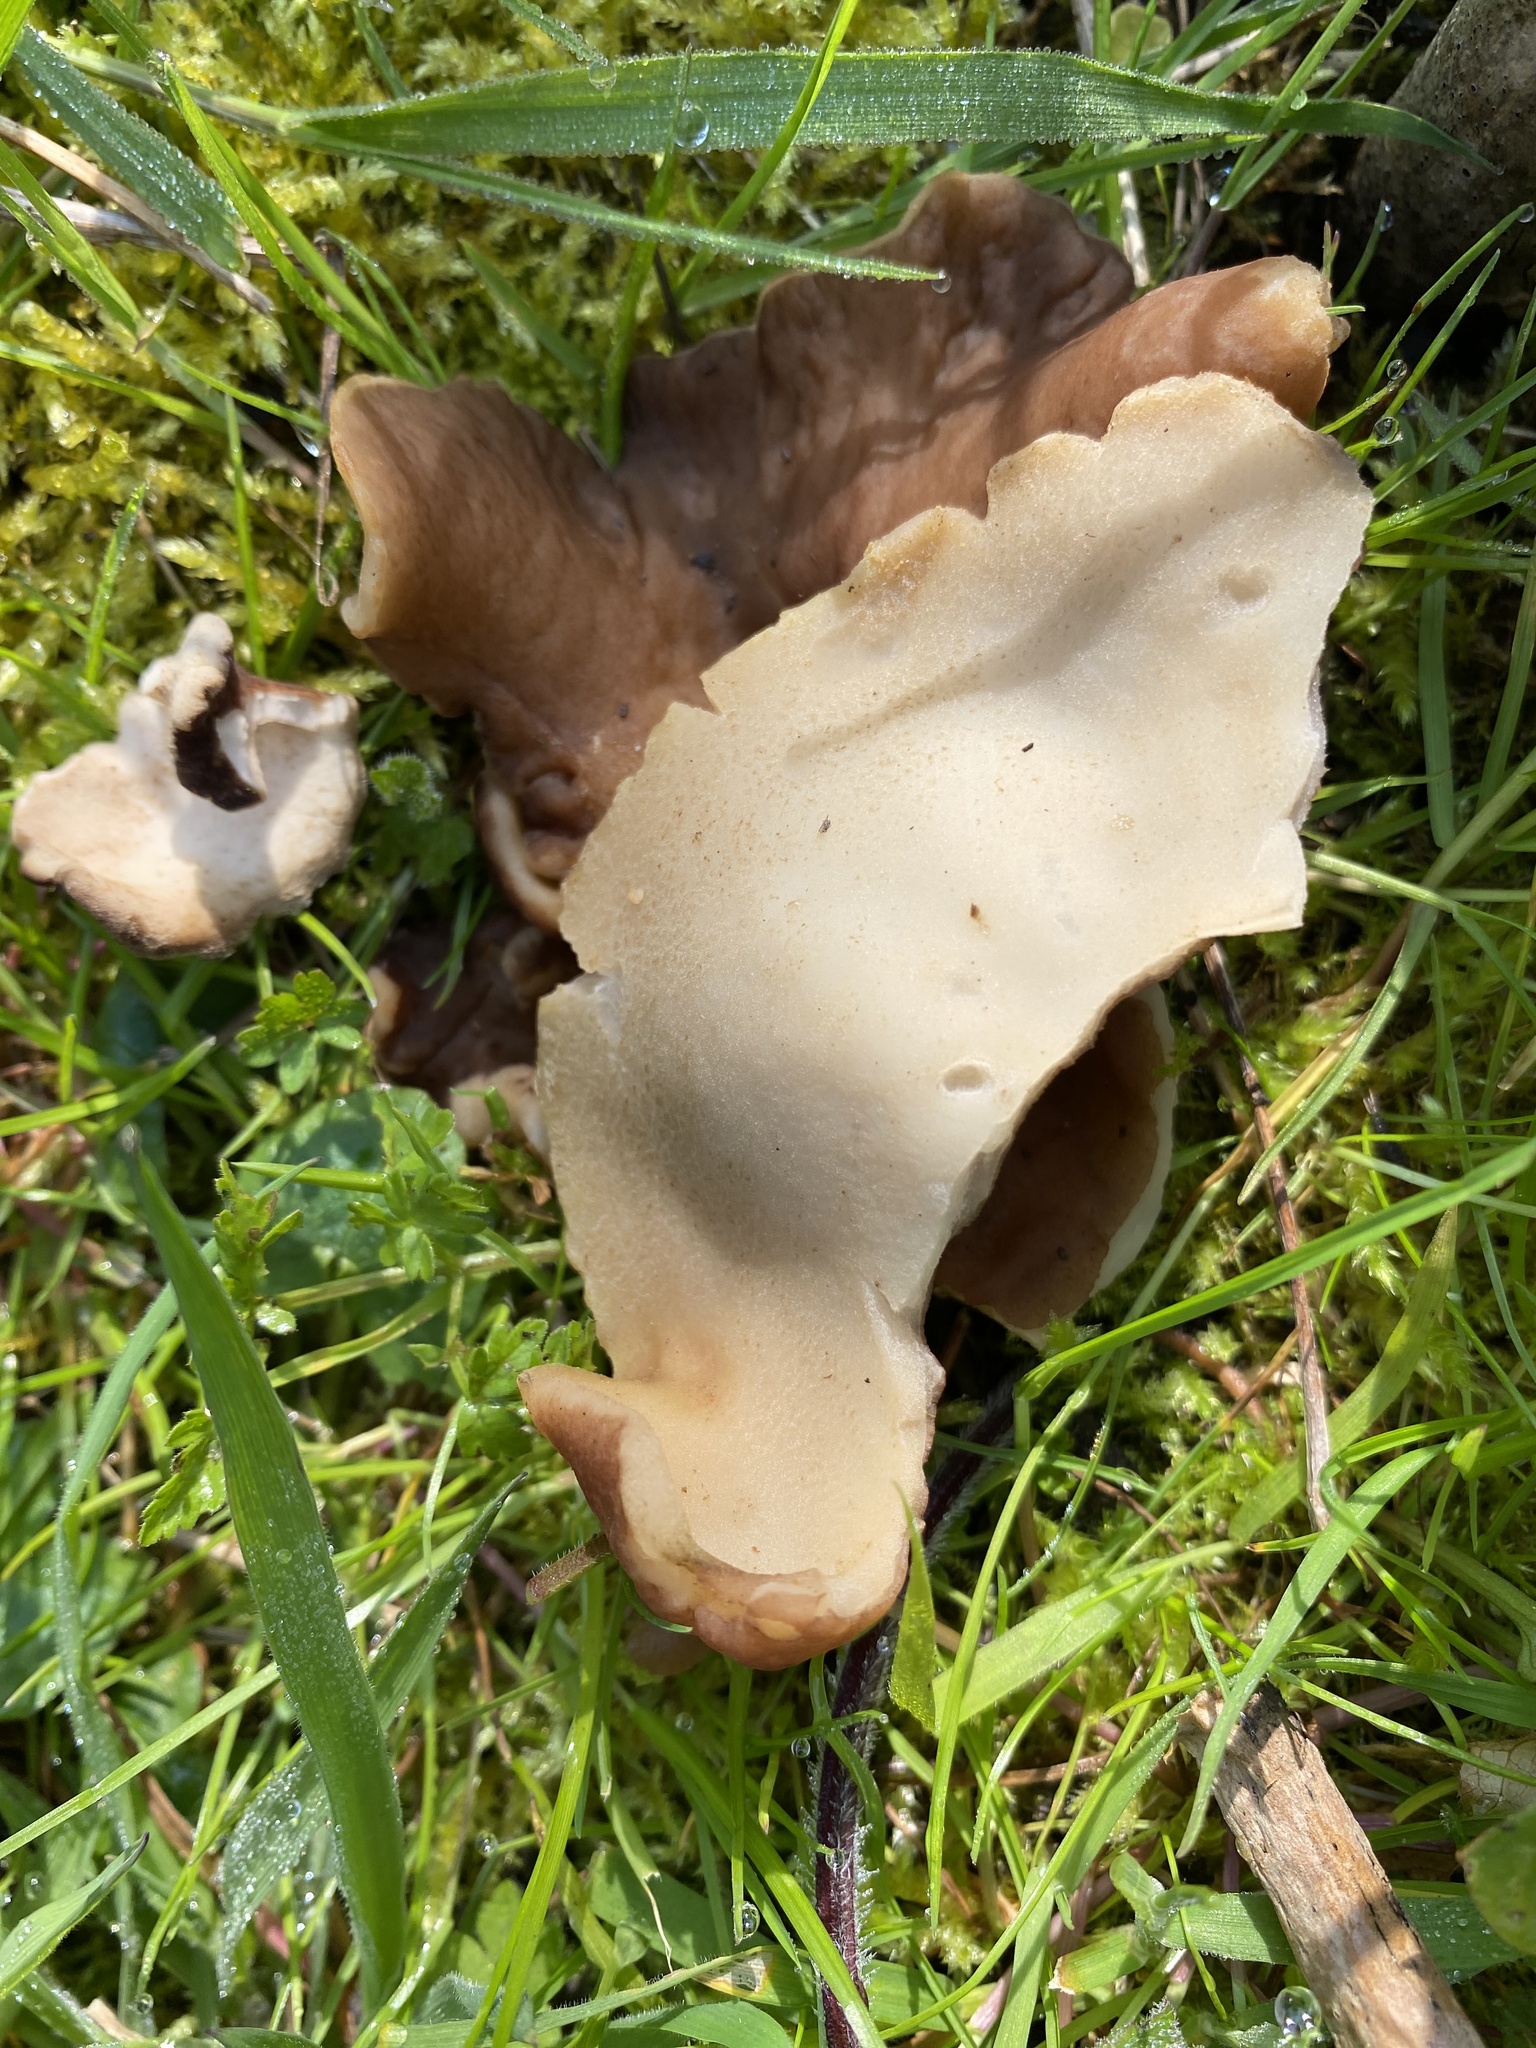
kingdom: Fungi
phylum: Ascomycota
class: Pezizomycetes
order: Pezizales
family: Morchellaceae
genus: Disciotis
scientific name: Disciotis venosa
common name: Bleach cup
